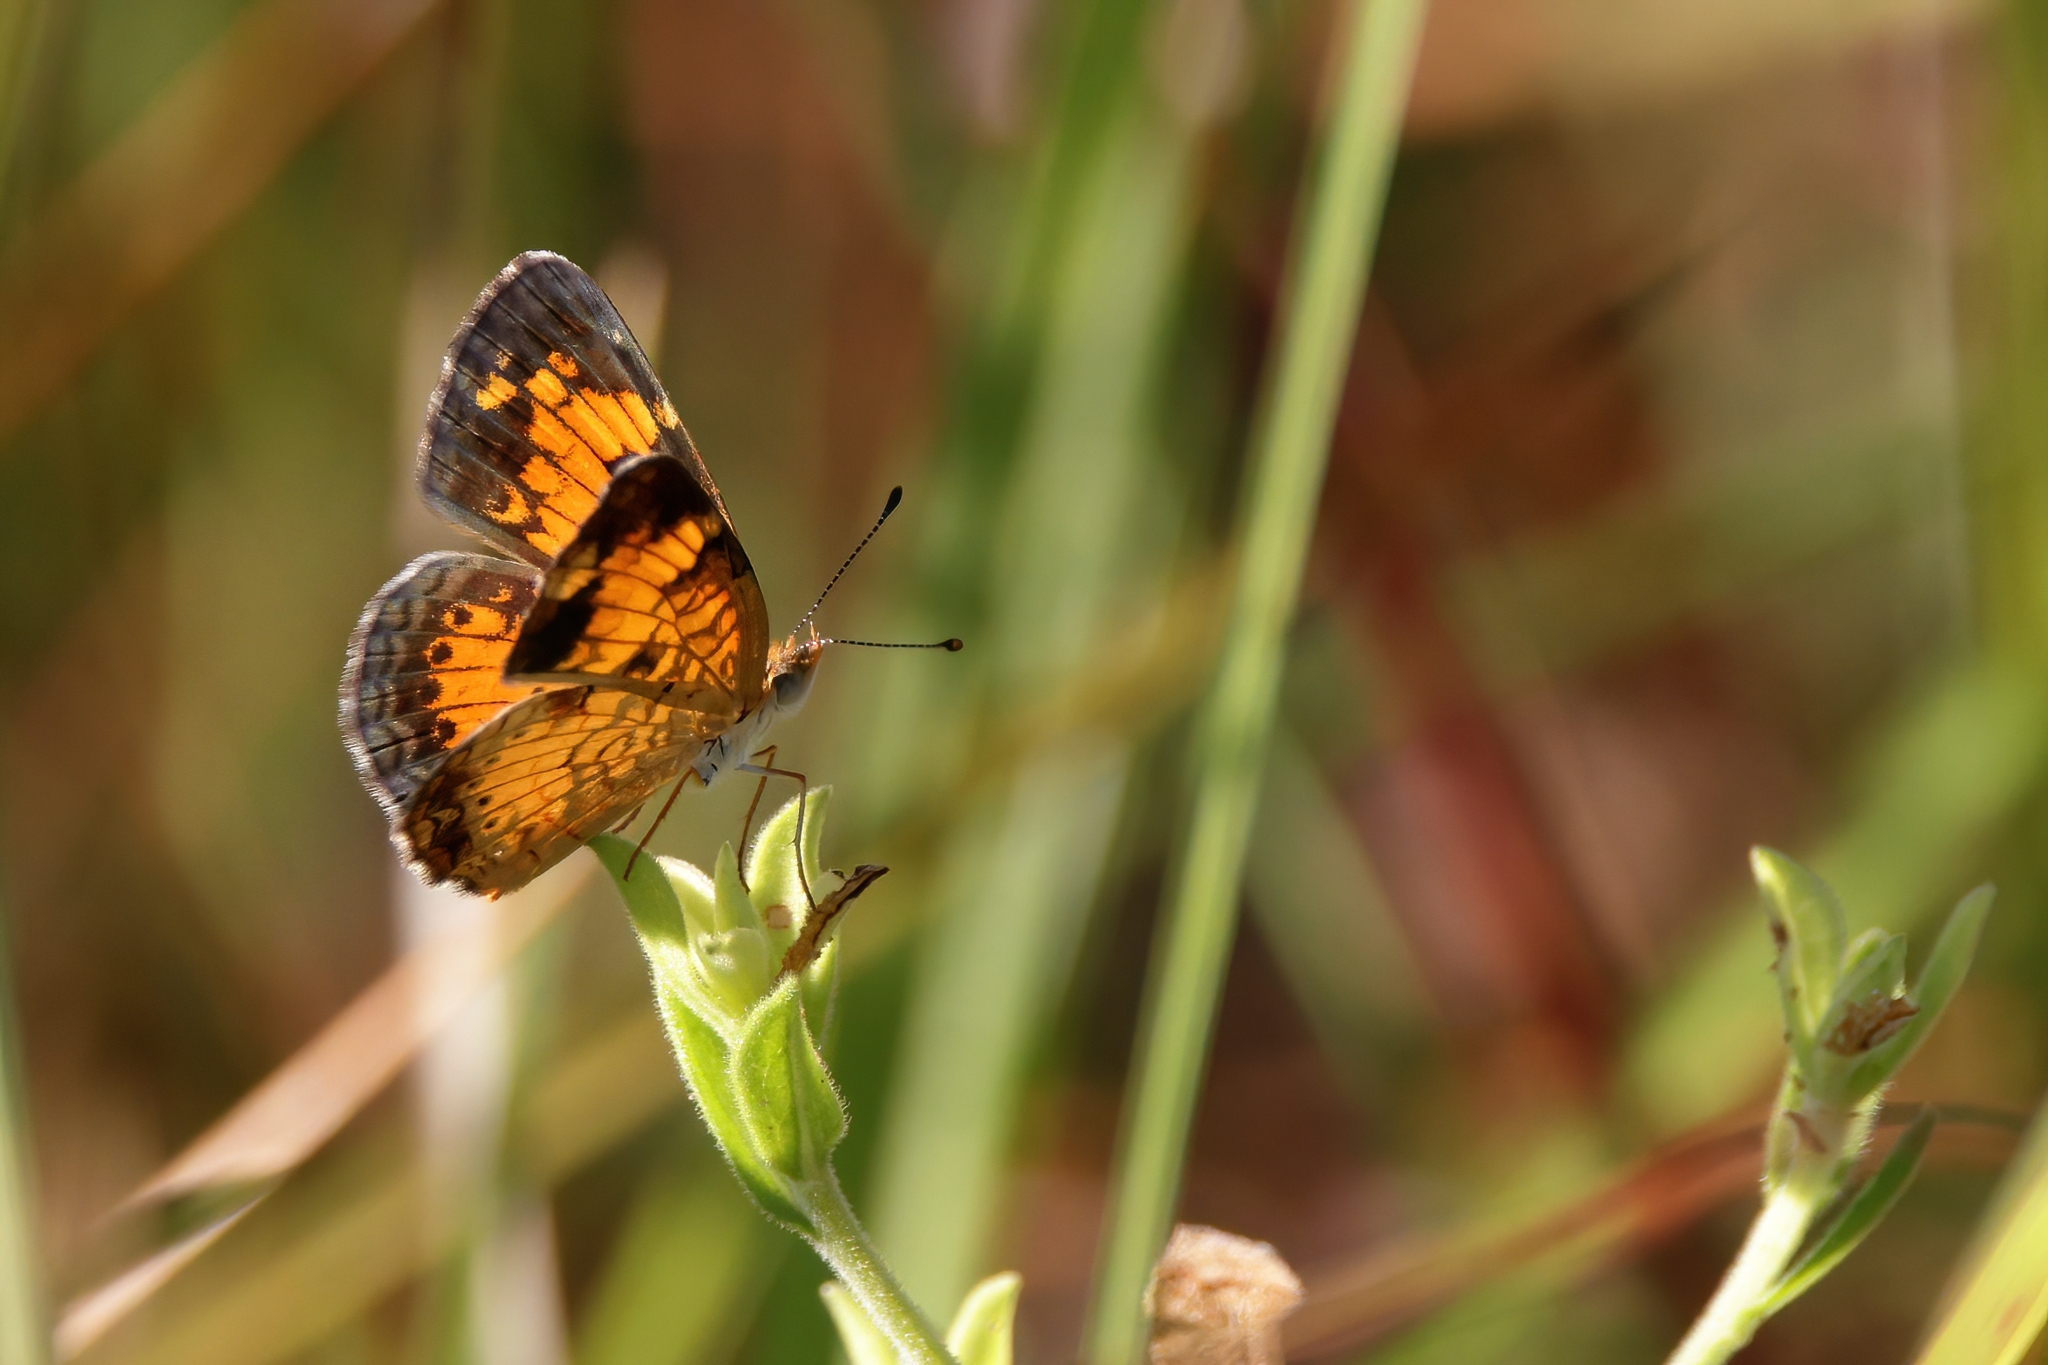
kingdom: Animalia
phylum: Arthropoda
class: Insecta
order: Lepidoptera
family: Nymphalidae
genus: Phyciodes
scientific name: Phyciodes tharos
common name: Pearl crescent
